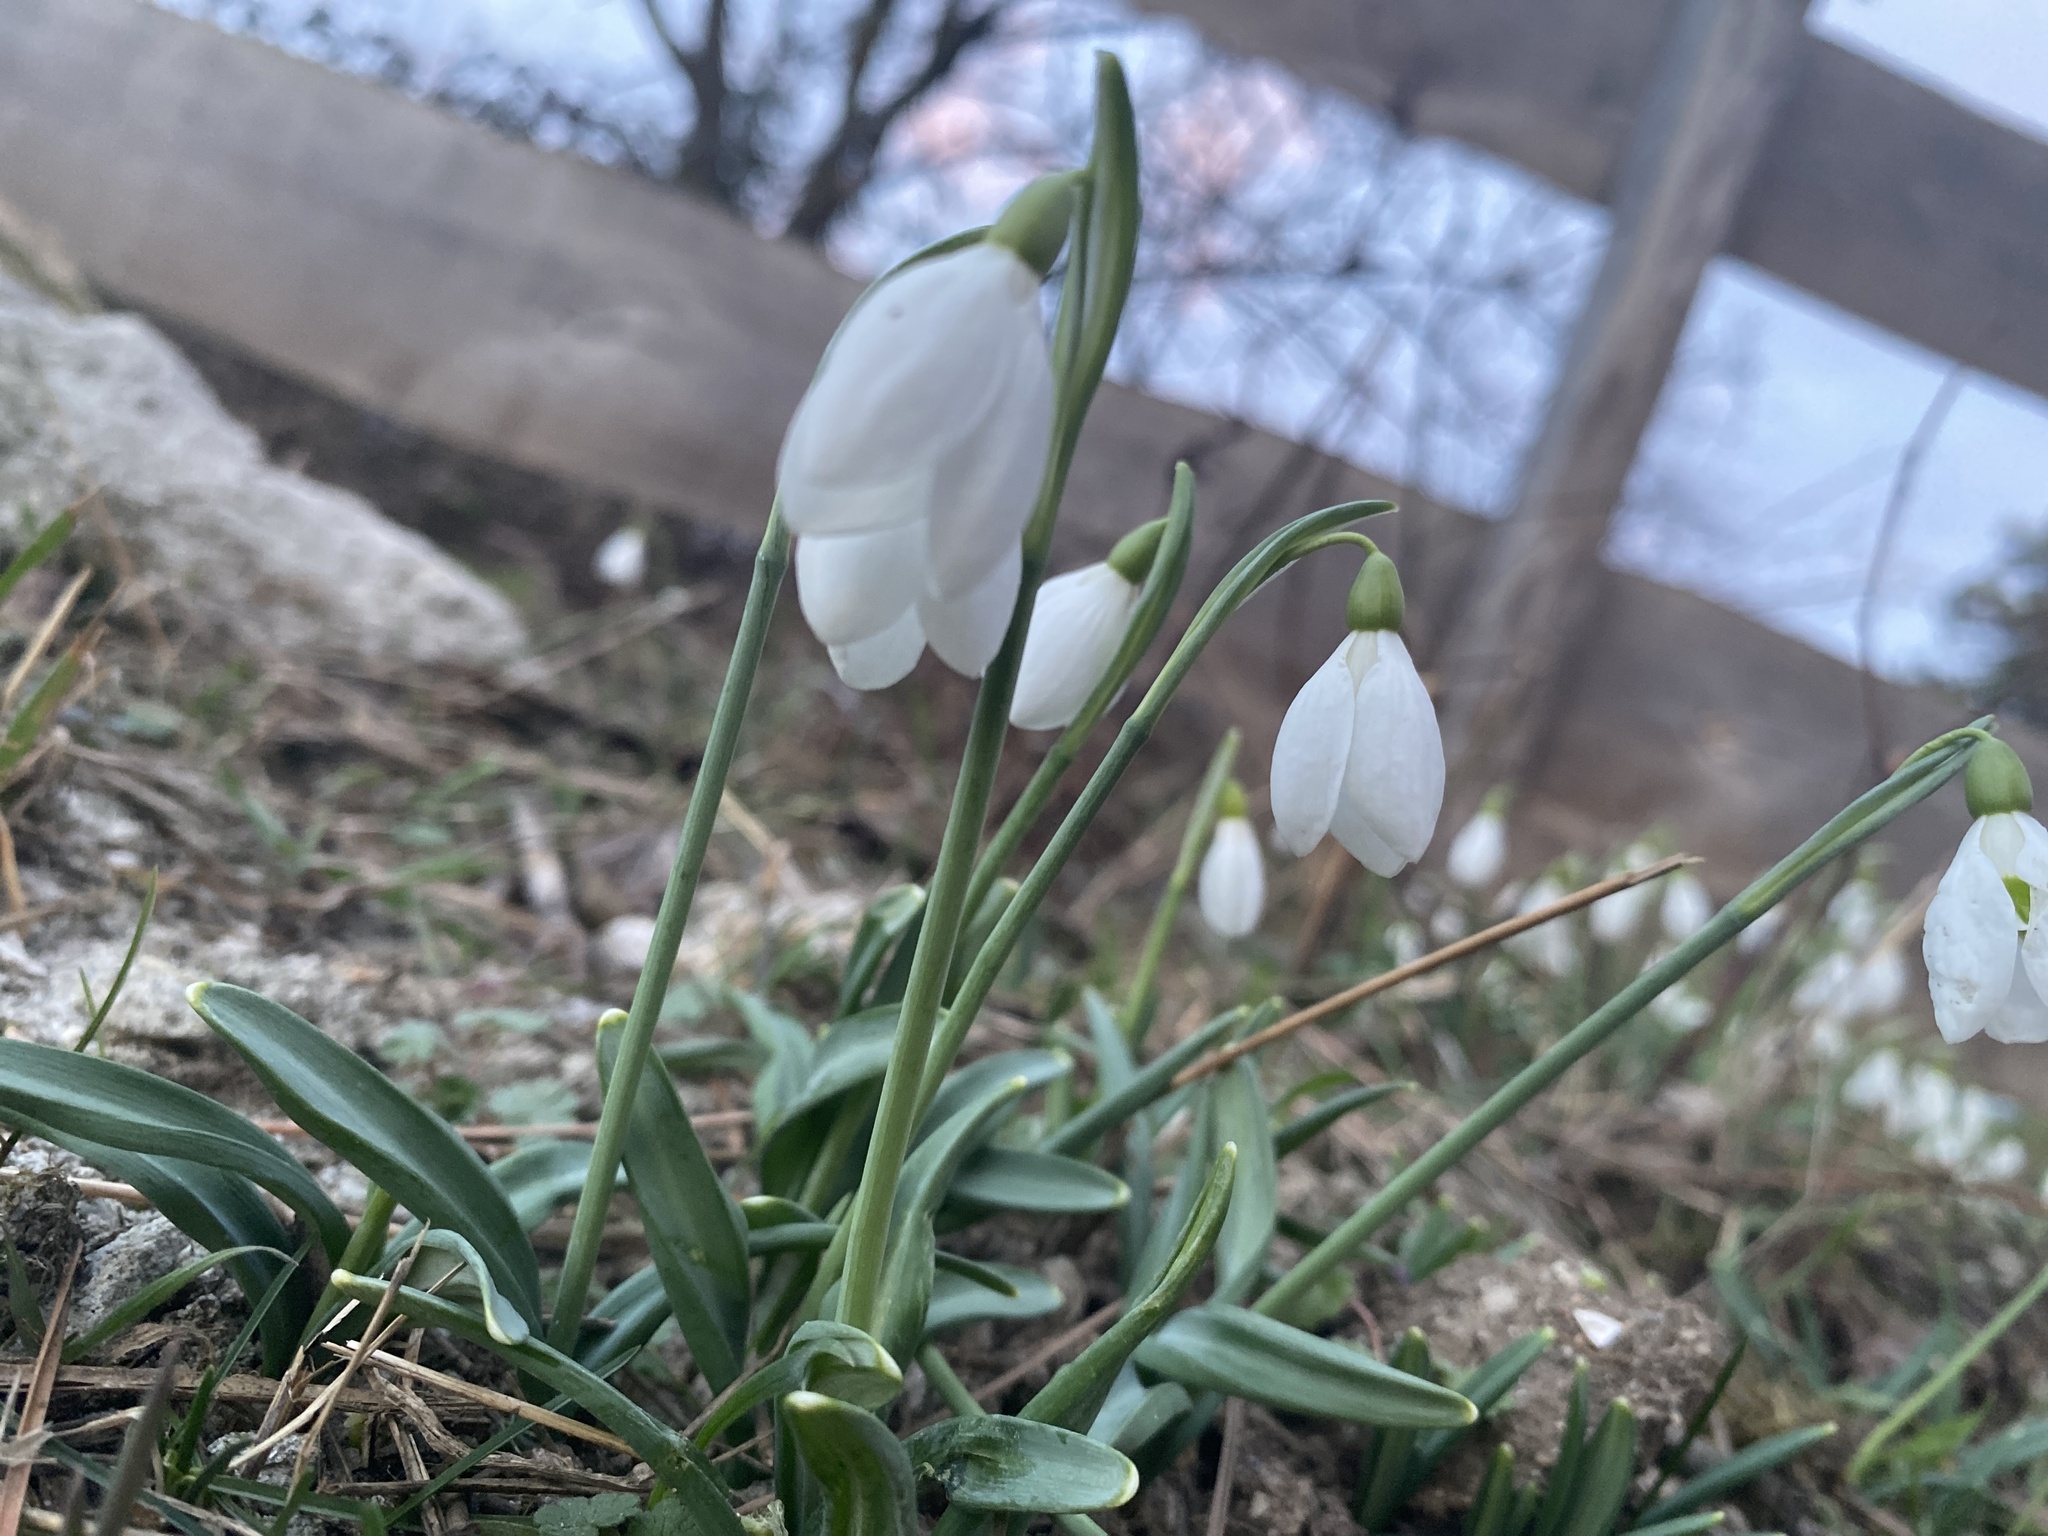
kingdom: Plantae
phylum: Tracheophyta
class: Liliopsida
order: Asparagales
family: Amaryllidaceae
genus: Galanthus
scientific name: Galanthus plicatus
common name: Pleated snowdrop
